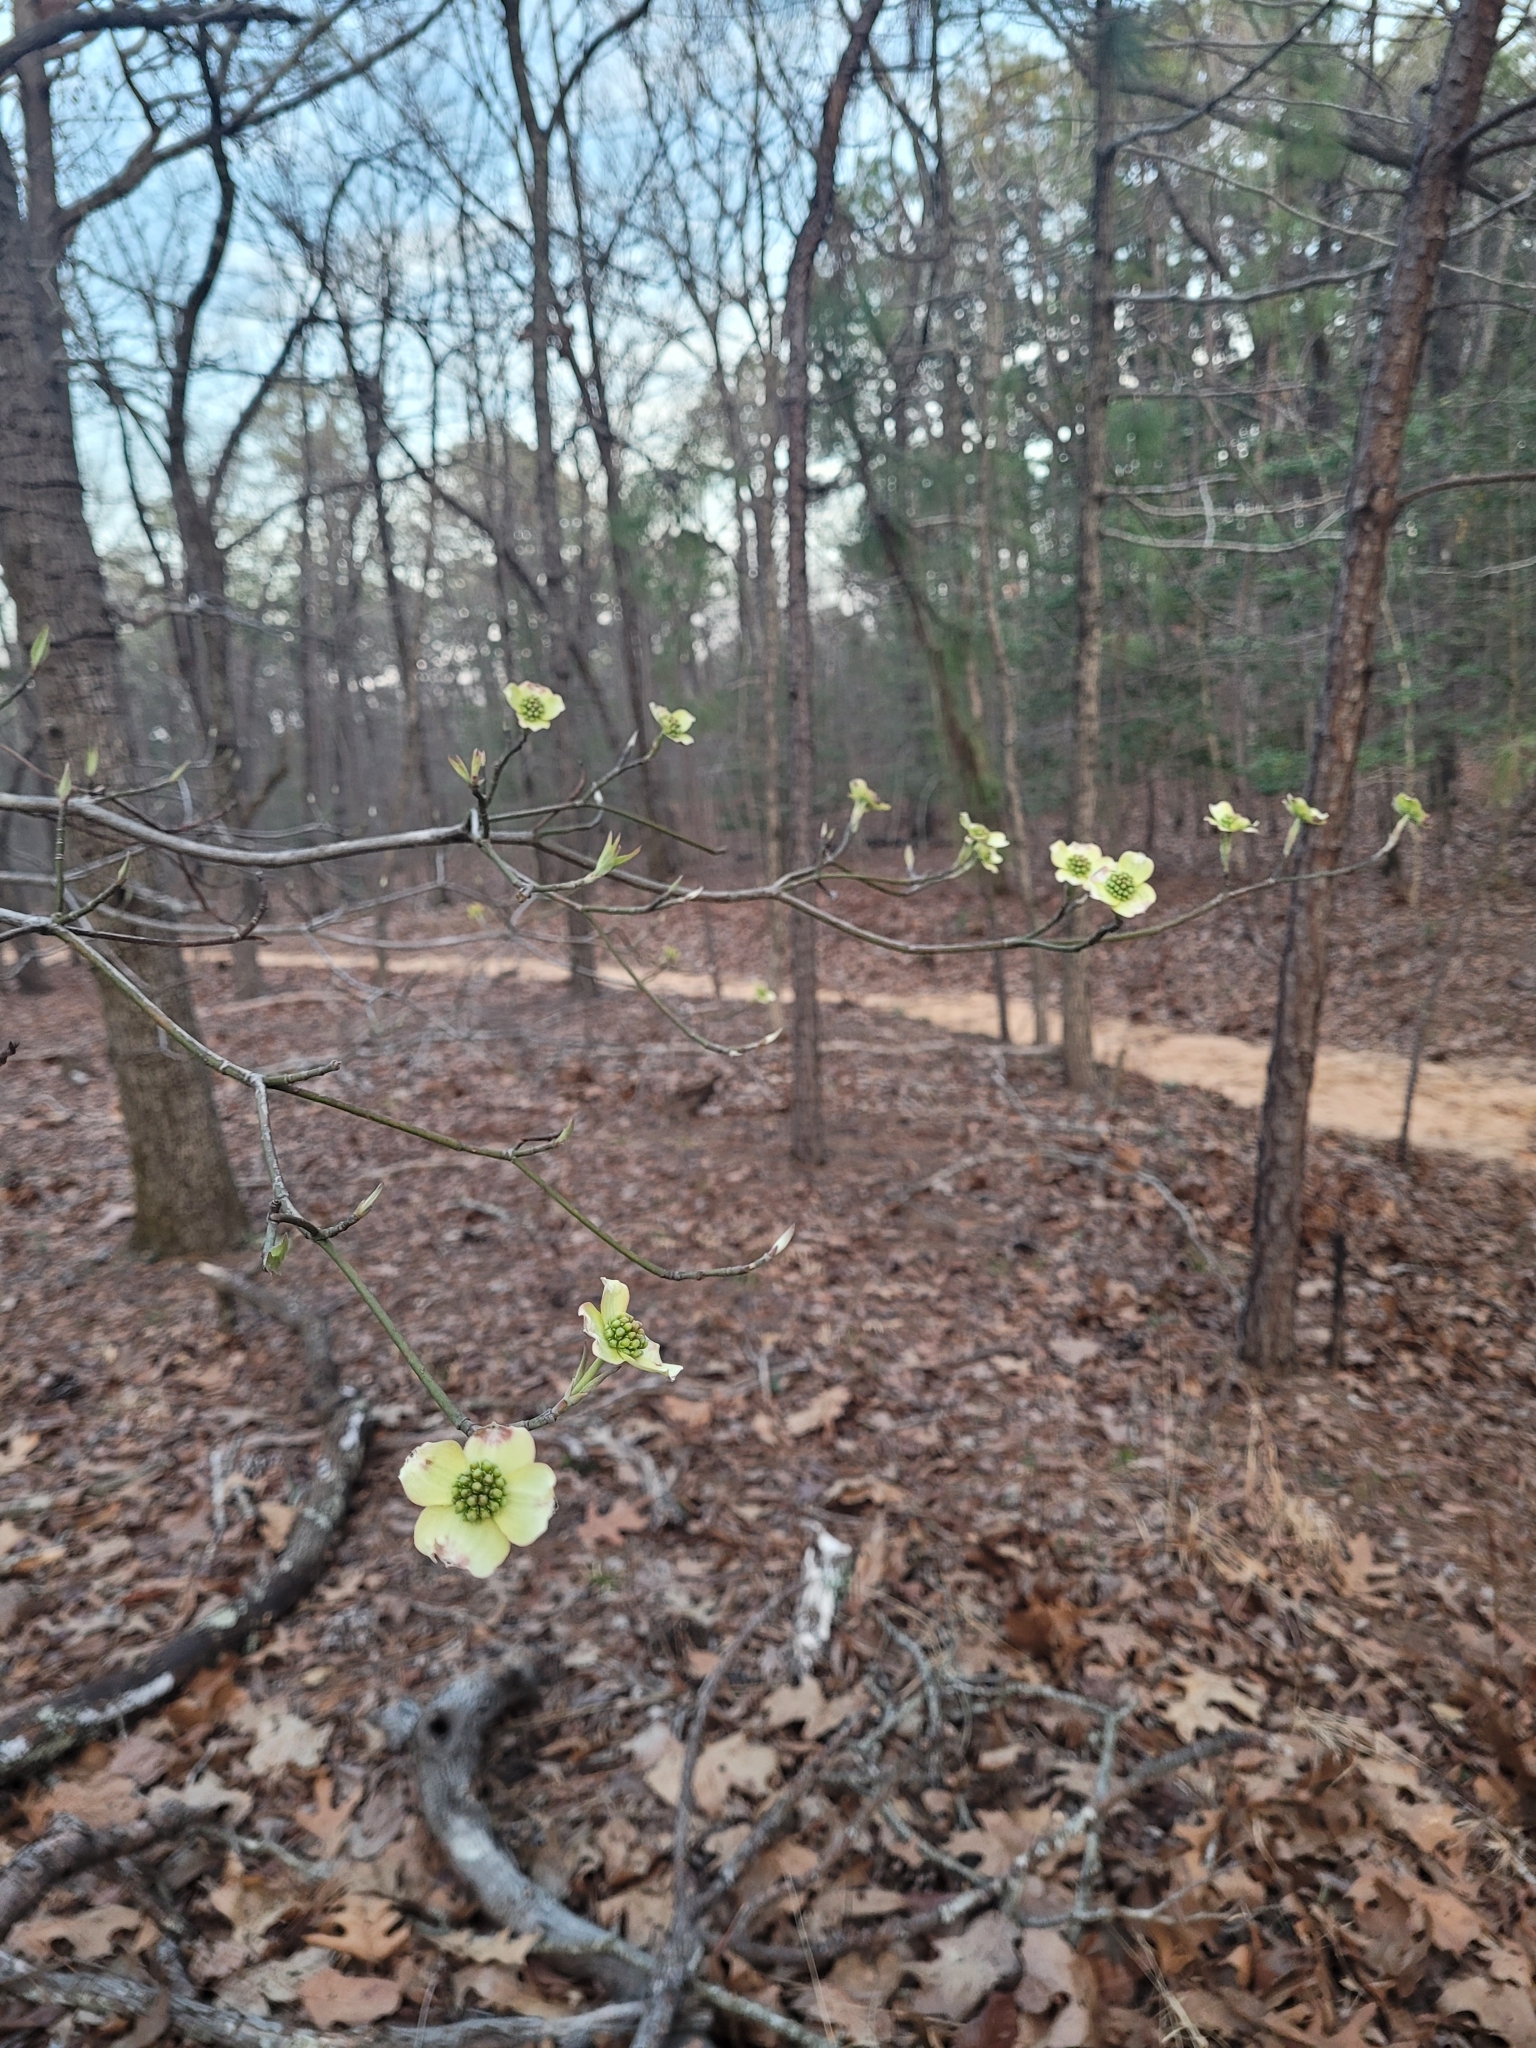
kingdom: Plantae
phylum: Tracheophyta
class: Magnoliopsida
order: Cornales
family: Cornaceae
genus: Cornus
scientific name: Cornus florida
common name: Flowering dogwood
